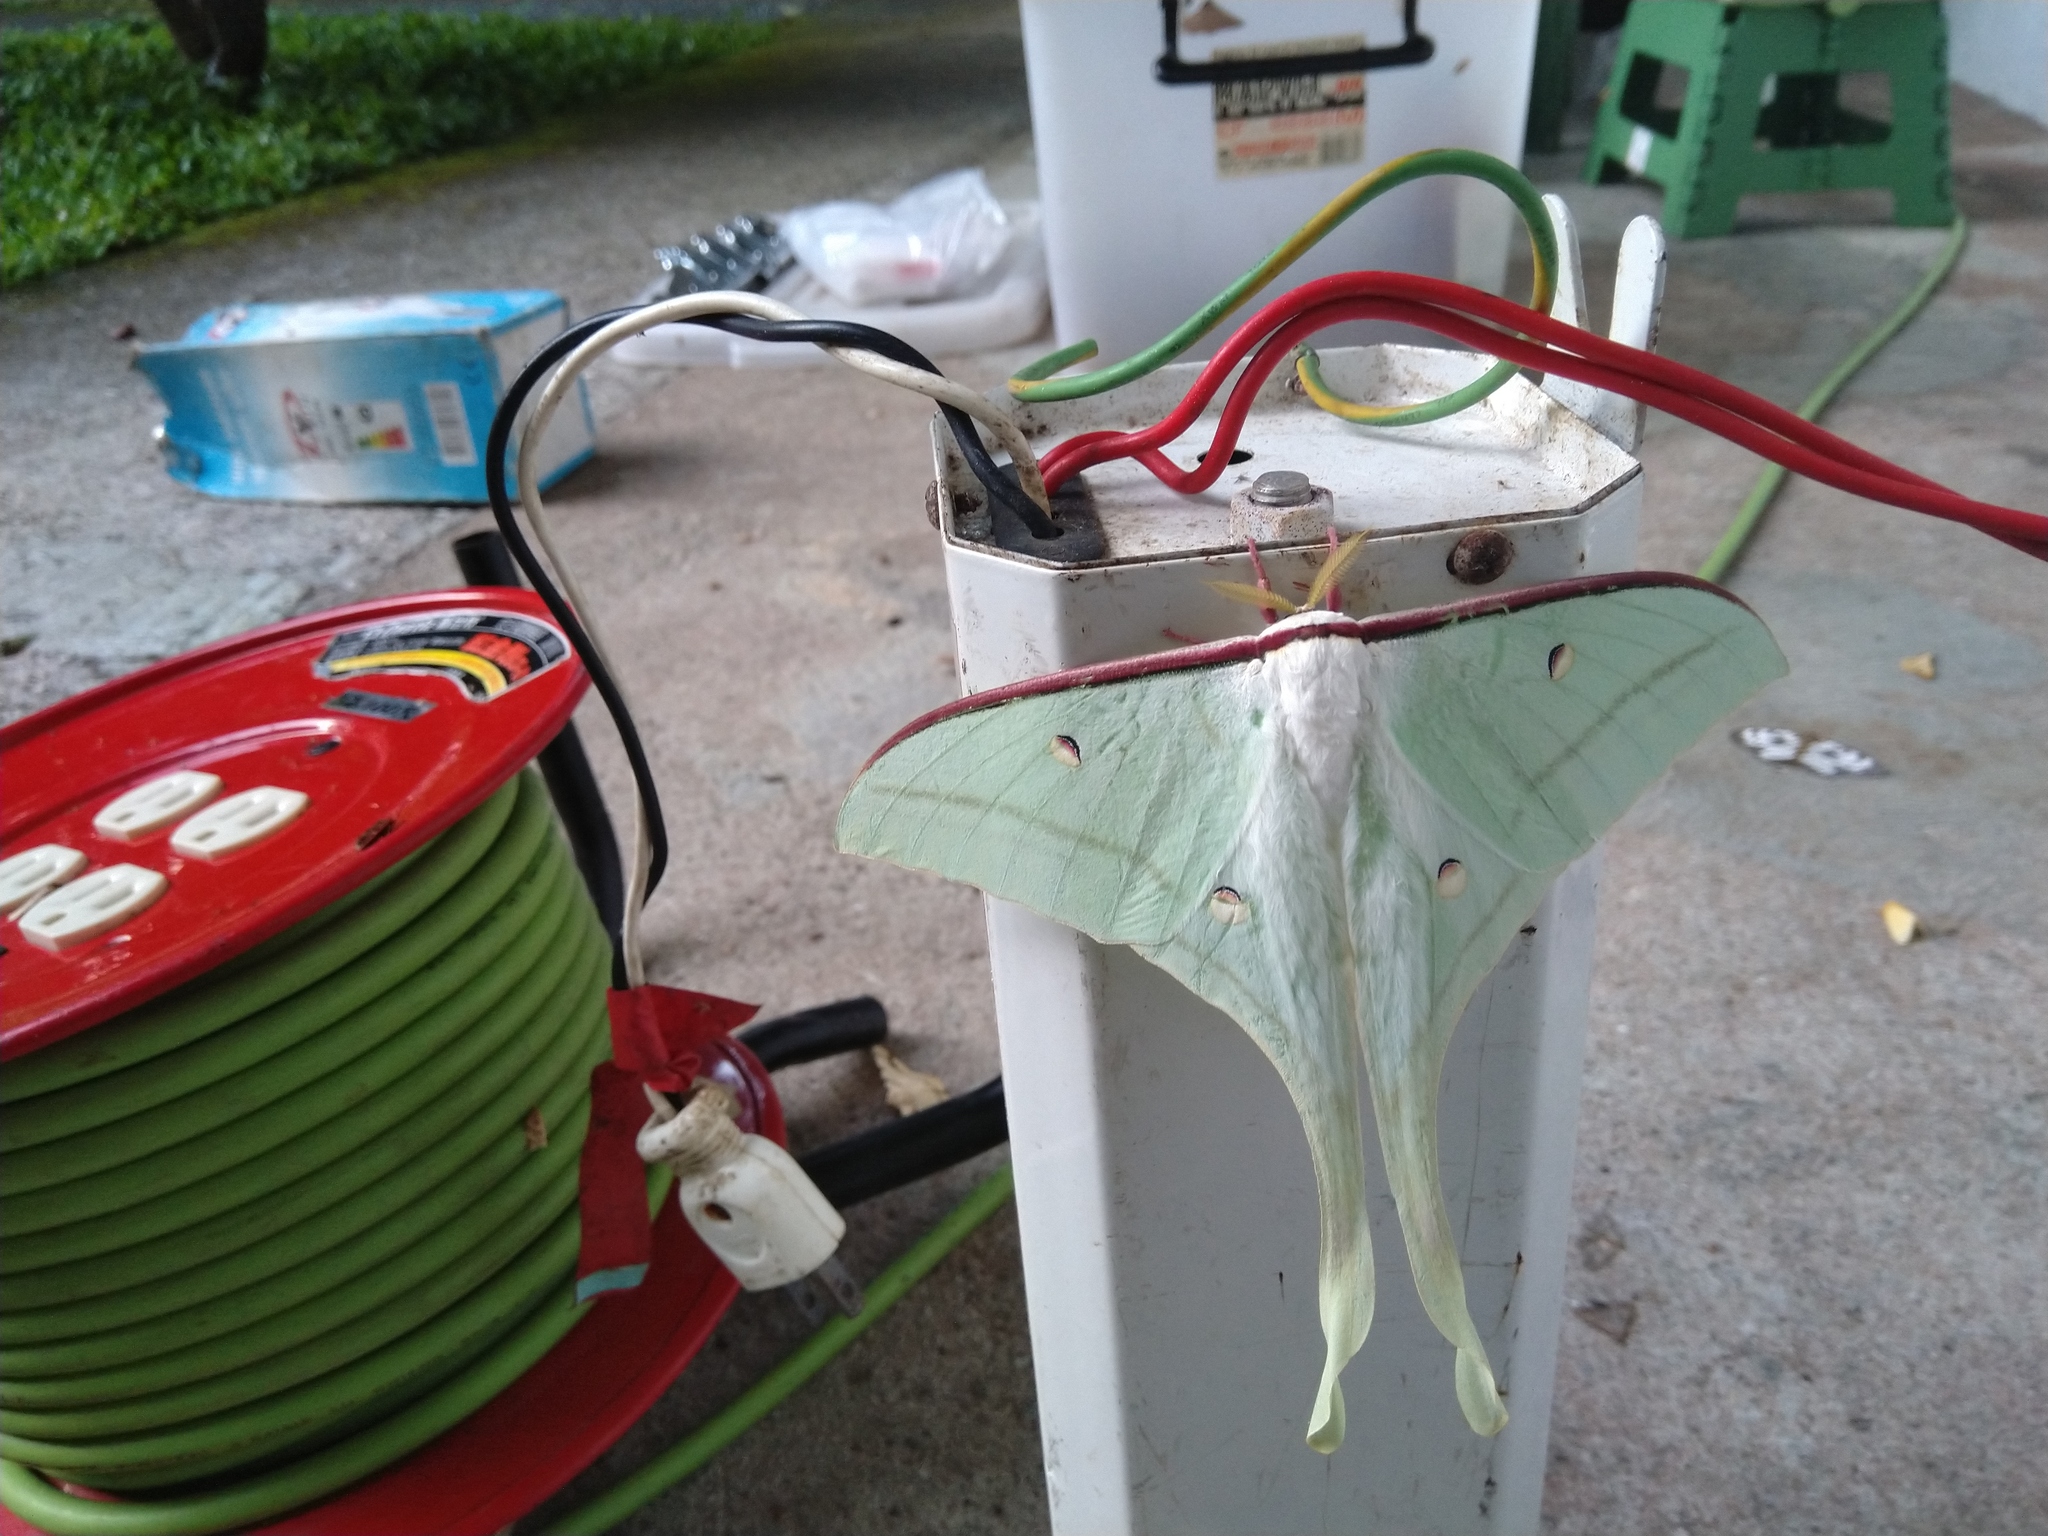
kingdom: Animalia
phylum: Arthropoda
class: Insecta
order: Lepidoptera
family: Saturniidae
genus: Actias
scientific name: Actias ningpoana
